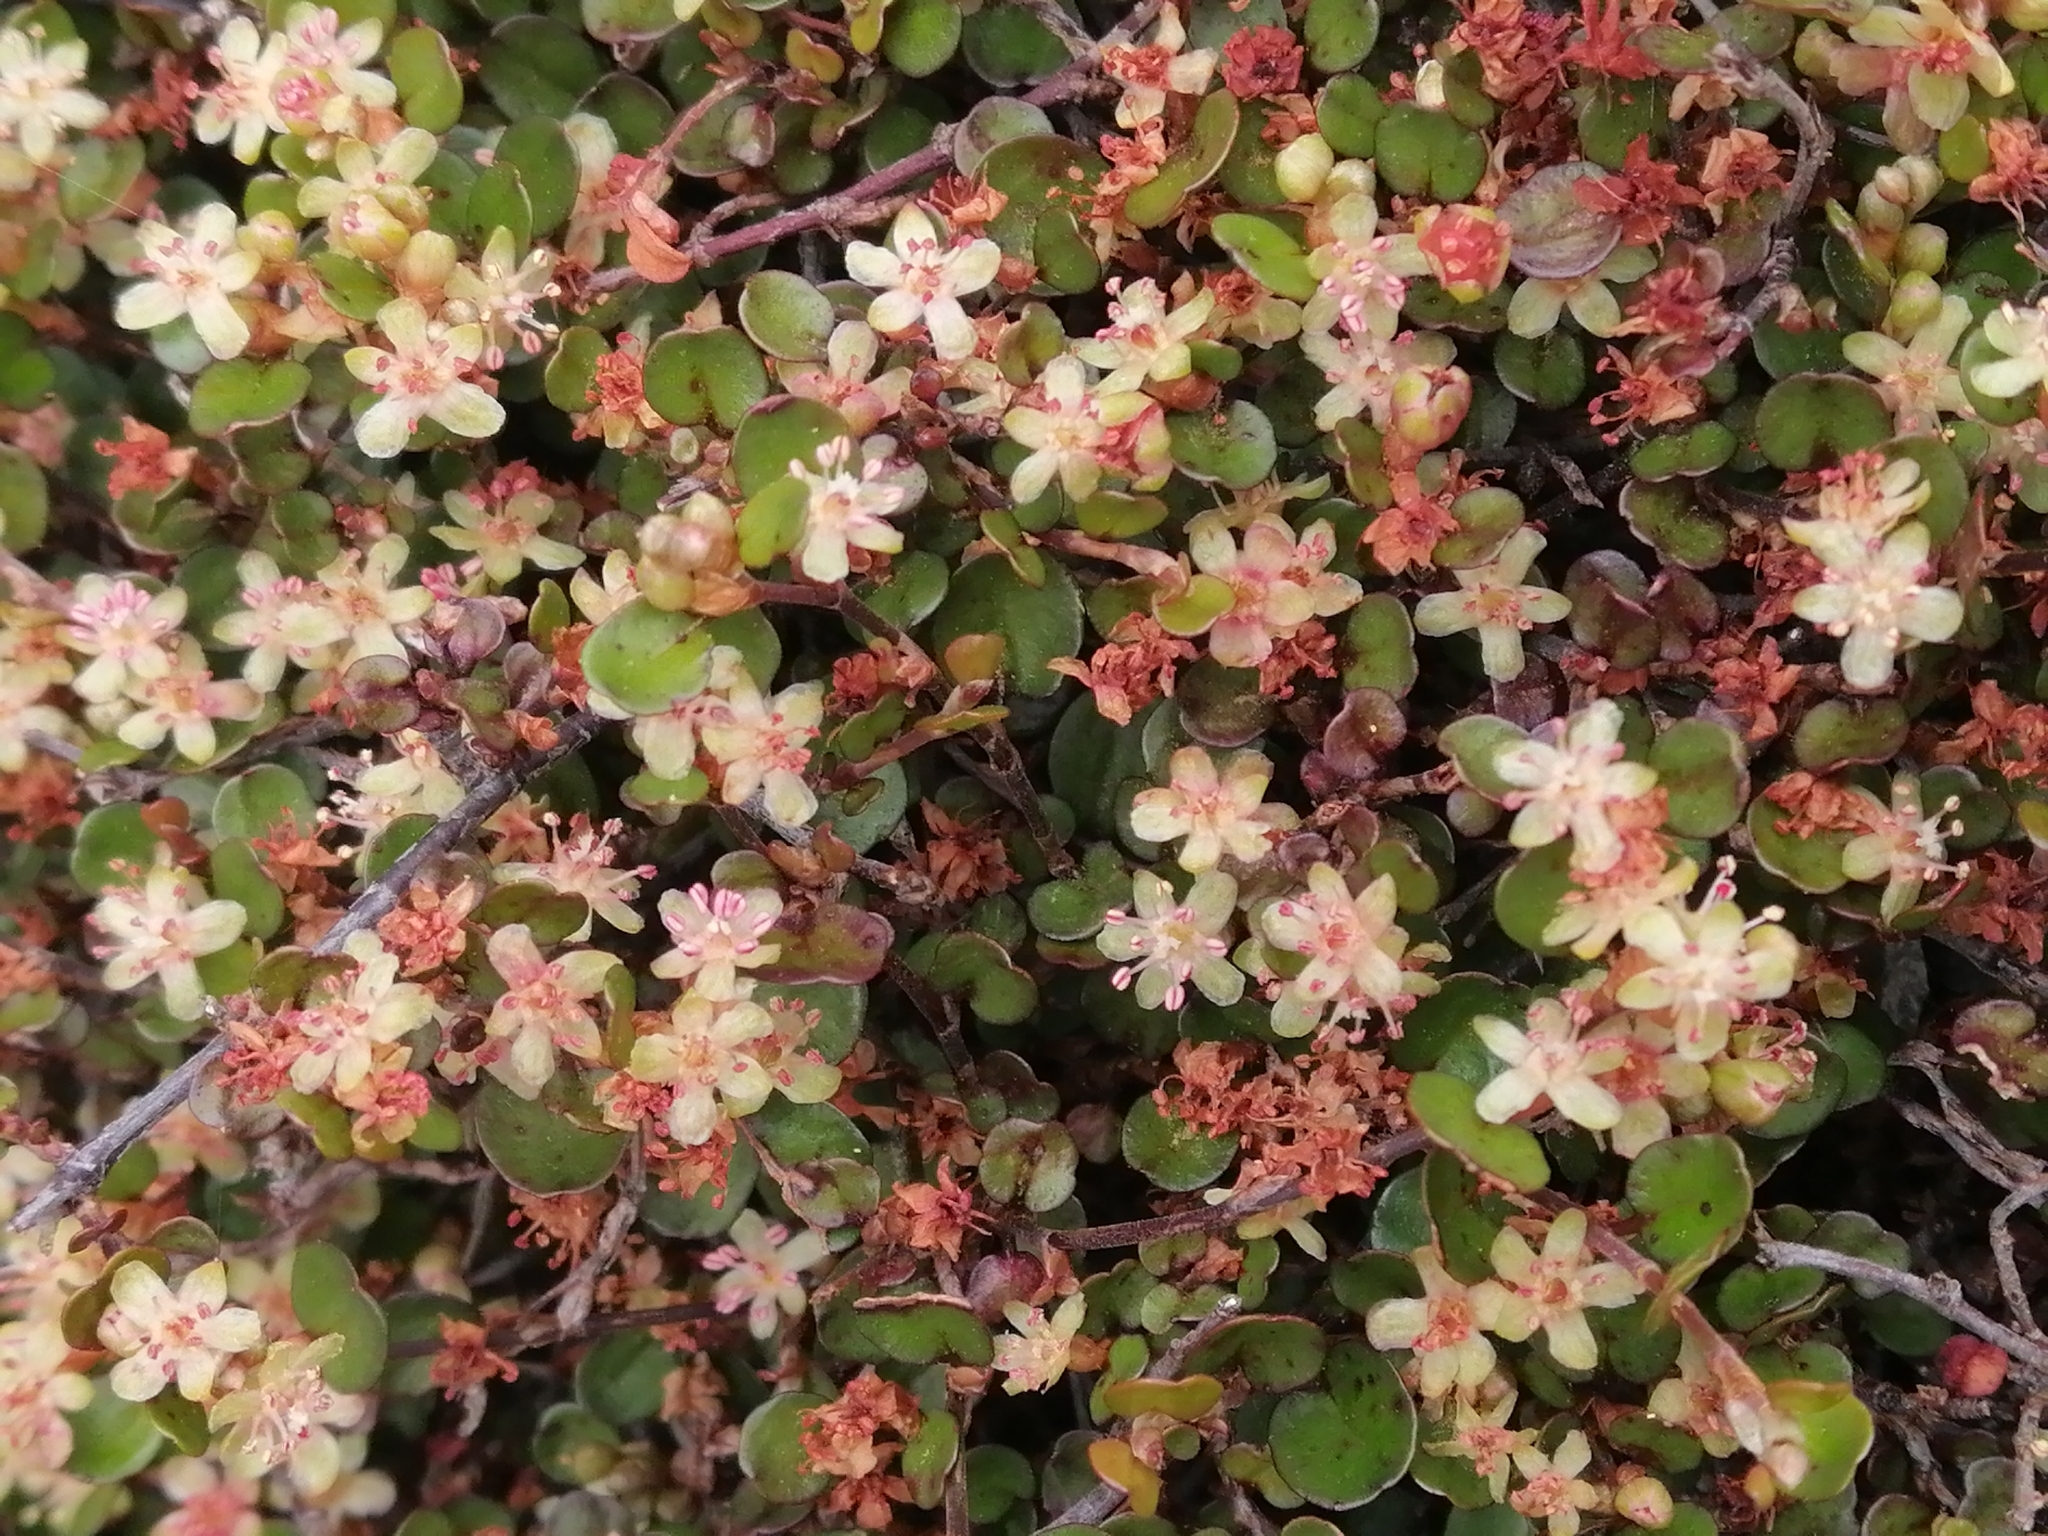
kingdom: Plantae
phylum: Tracheophyta
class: Magnoliopsida
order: Caryophyllales
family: Polygonaceae
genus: Muehlenbeckia
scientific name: Muehlenbeckia axillaris
